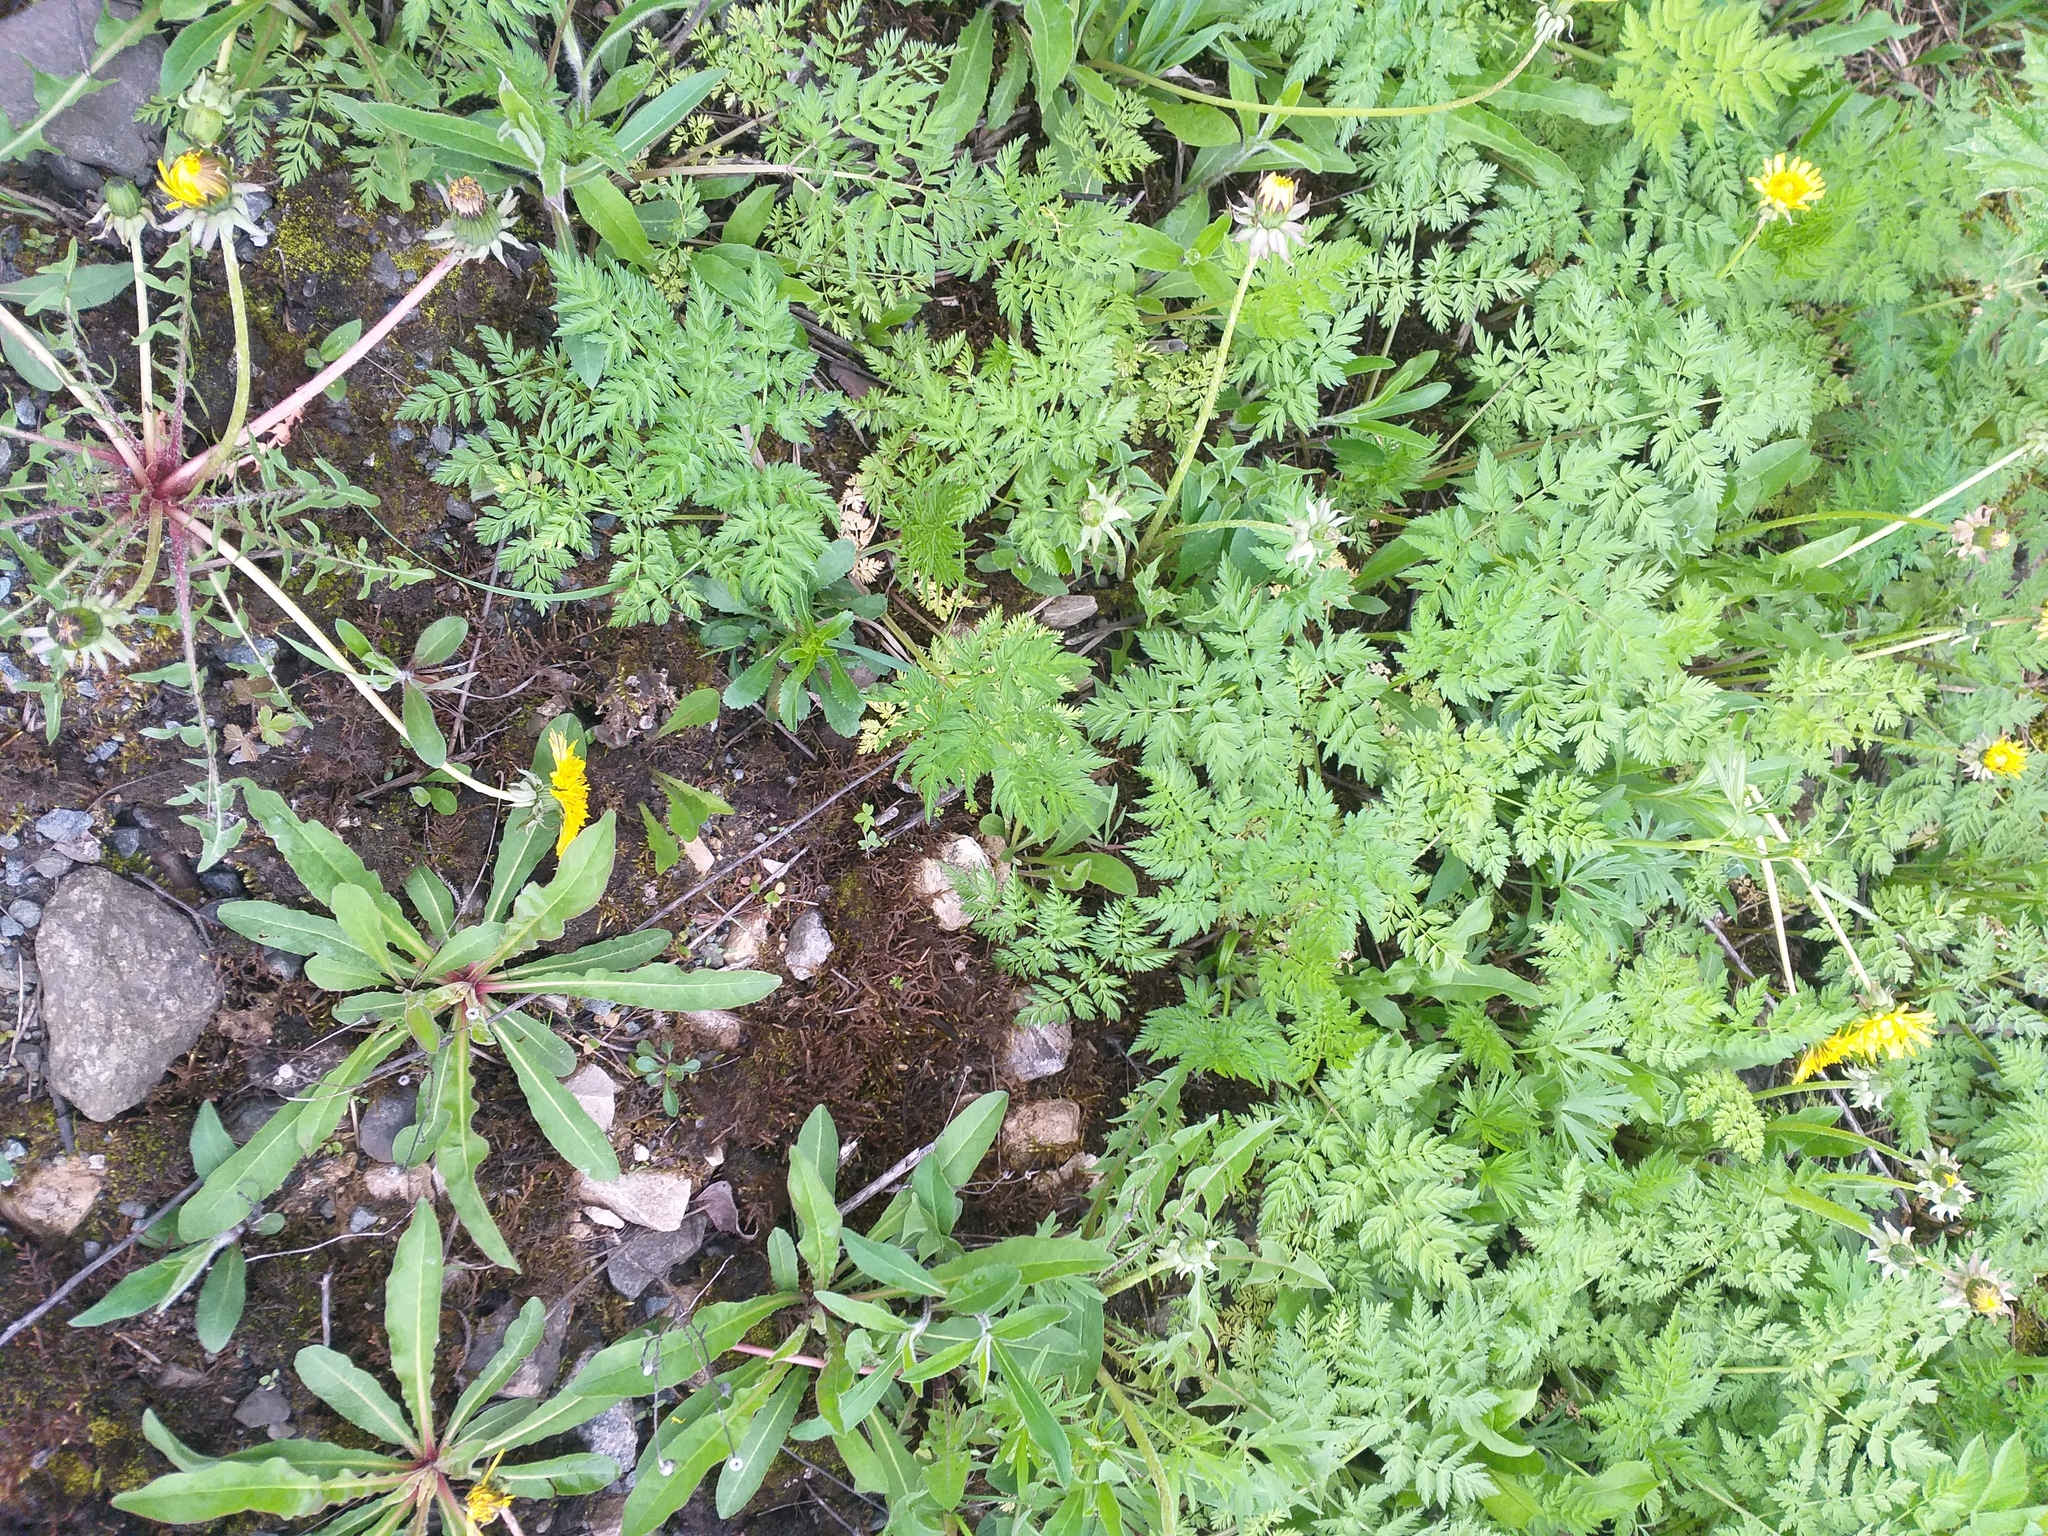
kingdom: Plantae
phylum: Tracheophyta
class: Magnoliopsida
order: Apiales
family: Apiaceae
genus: Anthriscus
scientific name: Anthriscus sylvestris
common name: Cow parsley
